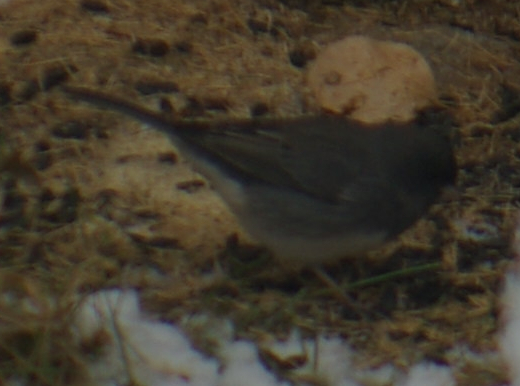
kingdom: Animalia
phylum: Chordata
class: Aves
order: Passeriformes
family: Passerellidae
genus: Junco
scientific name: Junco hyemalis
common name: Dark-eyed junco
